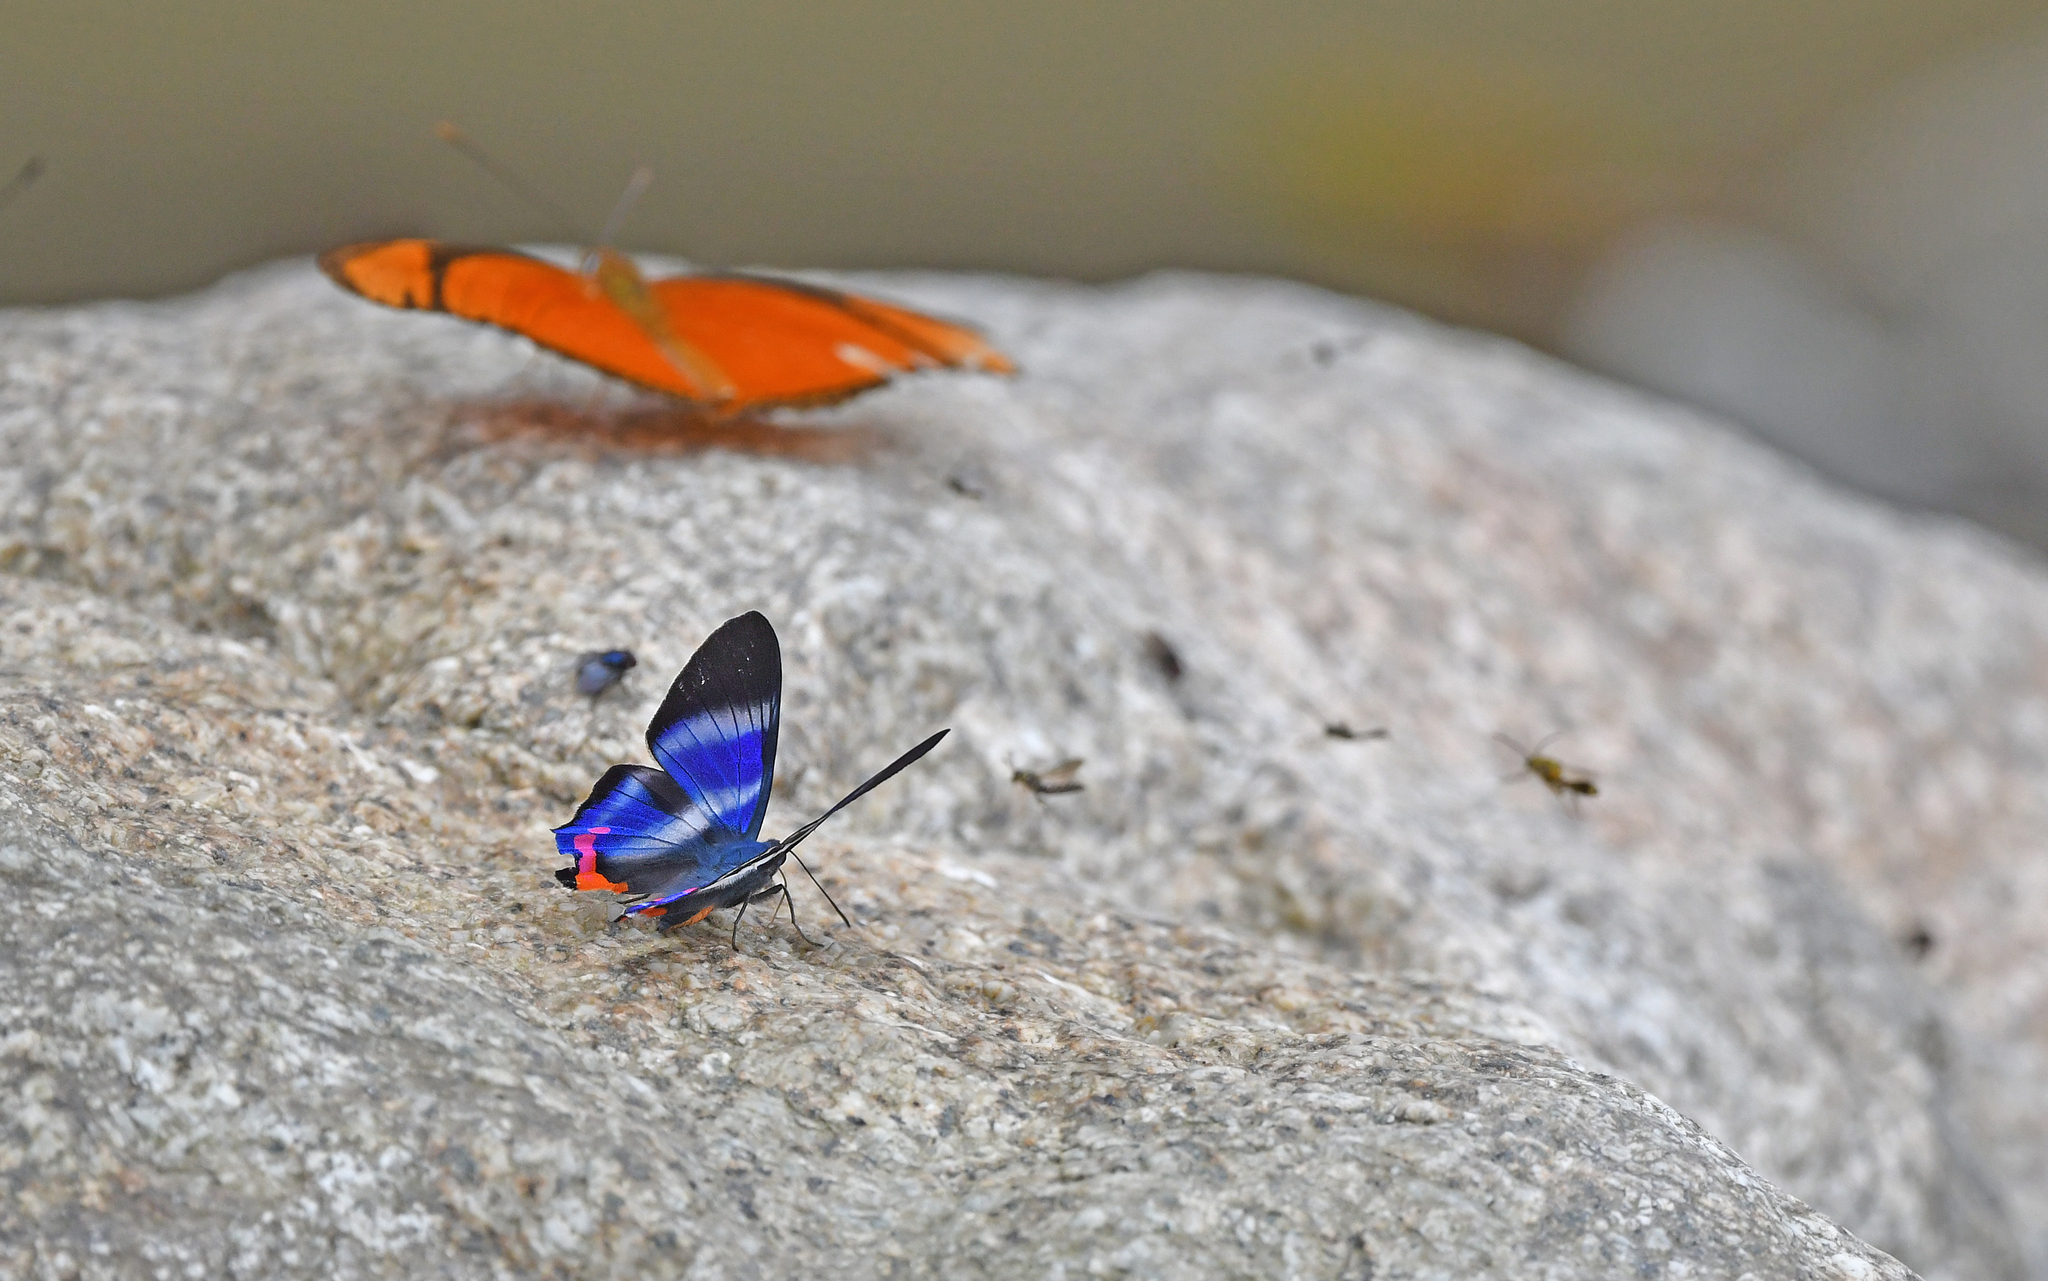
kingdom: Animalia
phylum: Arthropoda
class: Insecta
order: Lepidoptera
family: Riodinidae
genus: Rhetus
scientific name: Rhetus dysonii
